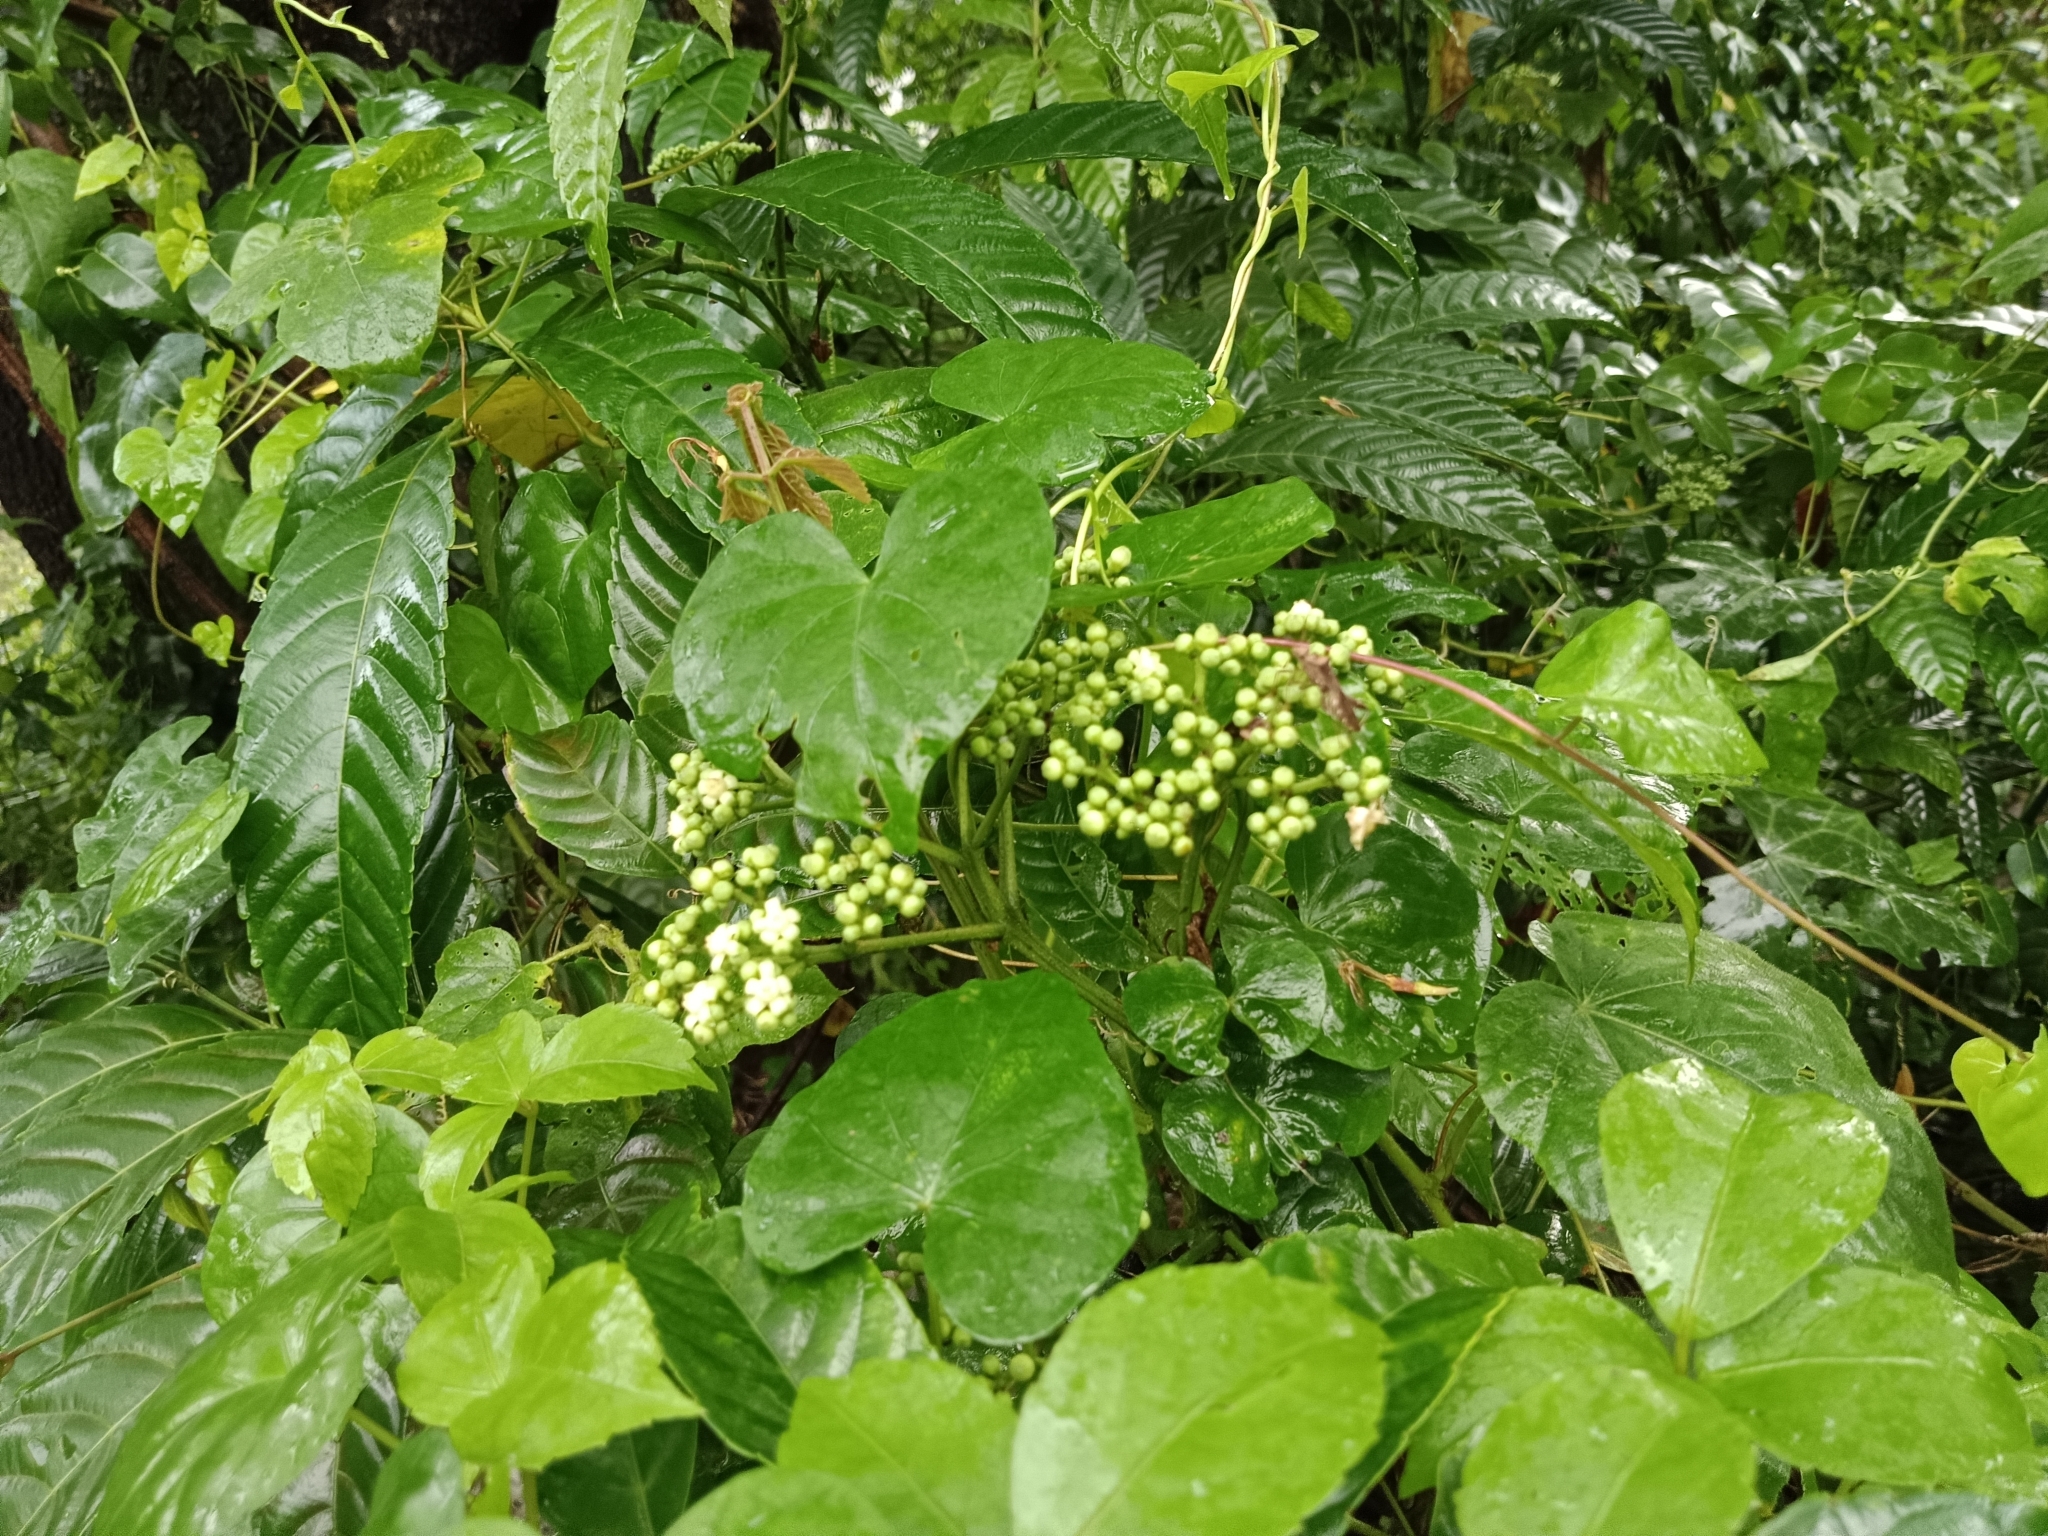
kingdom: Plantae
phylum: Tracheophyta
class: Magnoliopsida
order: Vitales
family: Vitaceae
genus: Leea
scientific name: Leea indica
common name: Bandicoot-berry
